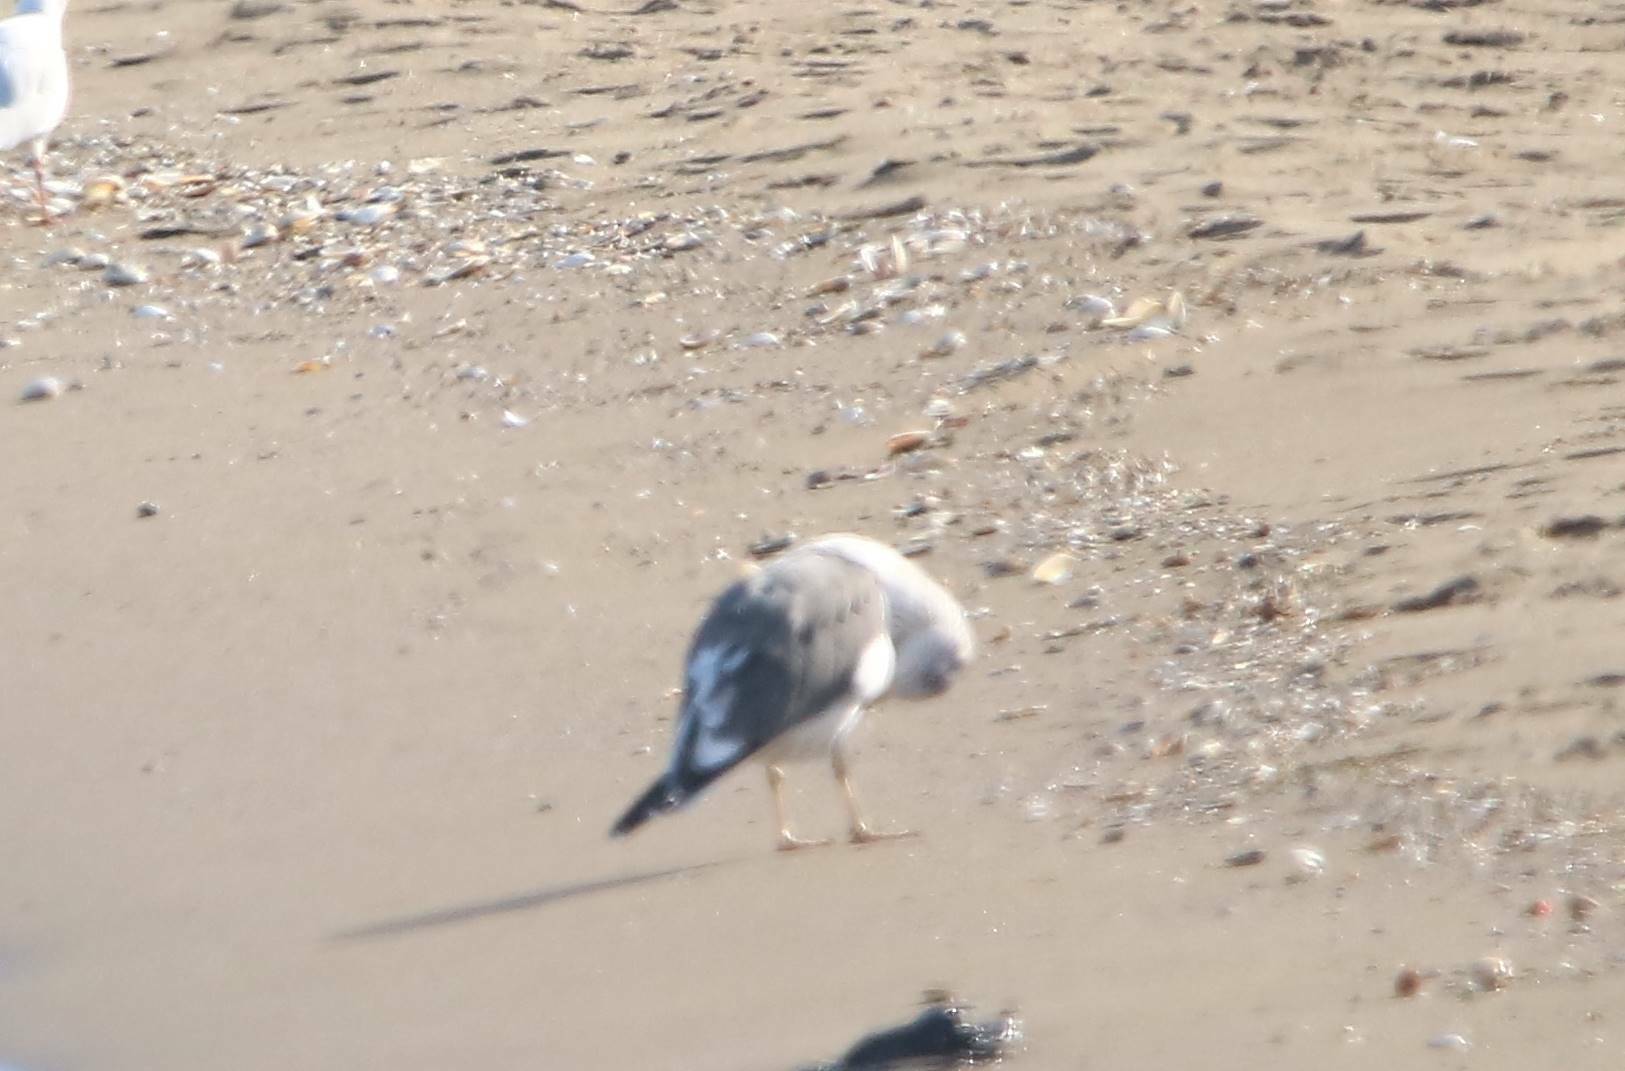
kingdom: Animalia
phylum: Chordata
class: Aves
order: Charadriiformes
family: Laridae
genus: Larus
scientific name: Larus michahellis
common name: Yellow-legged gull
